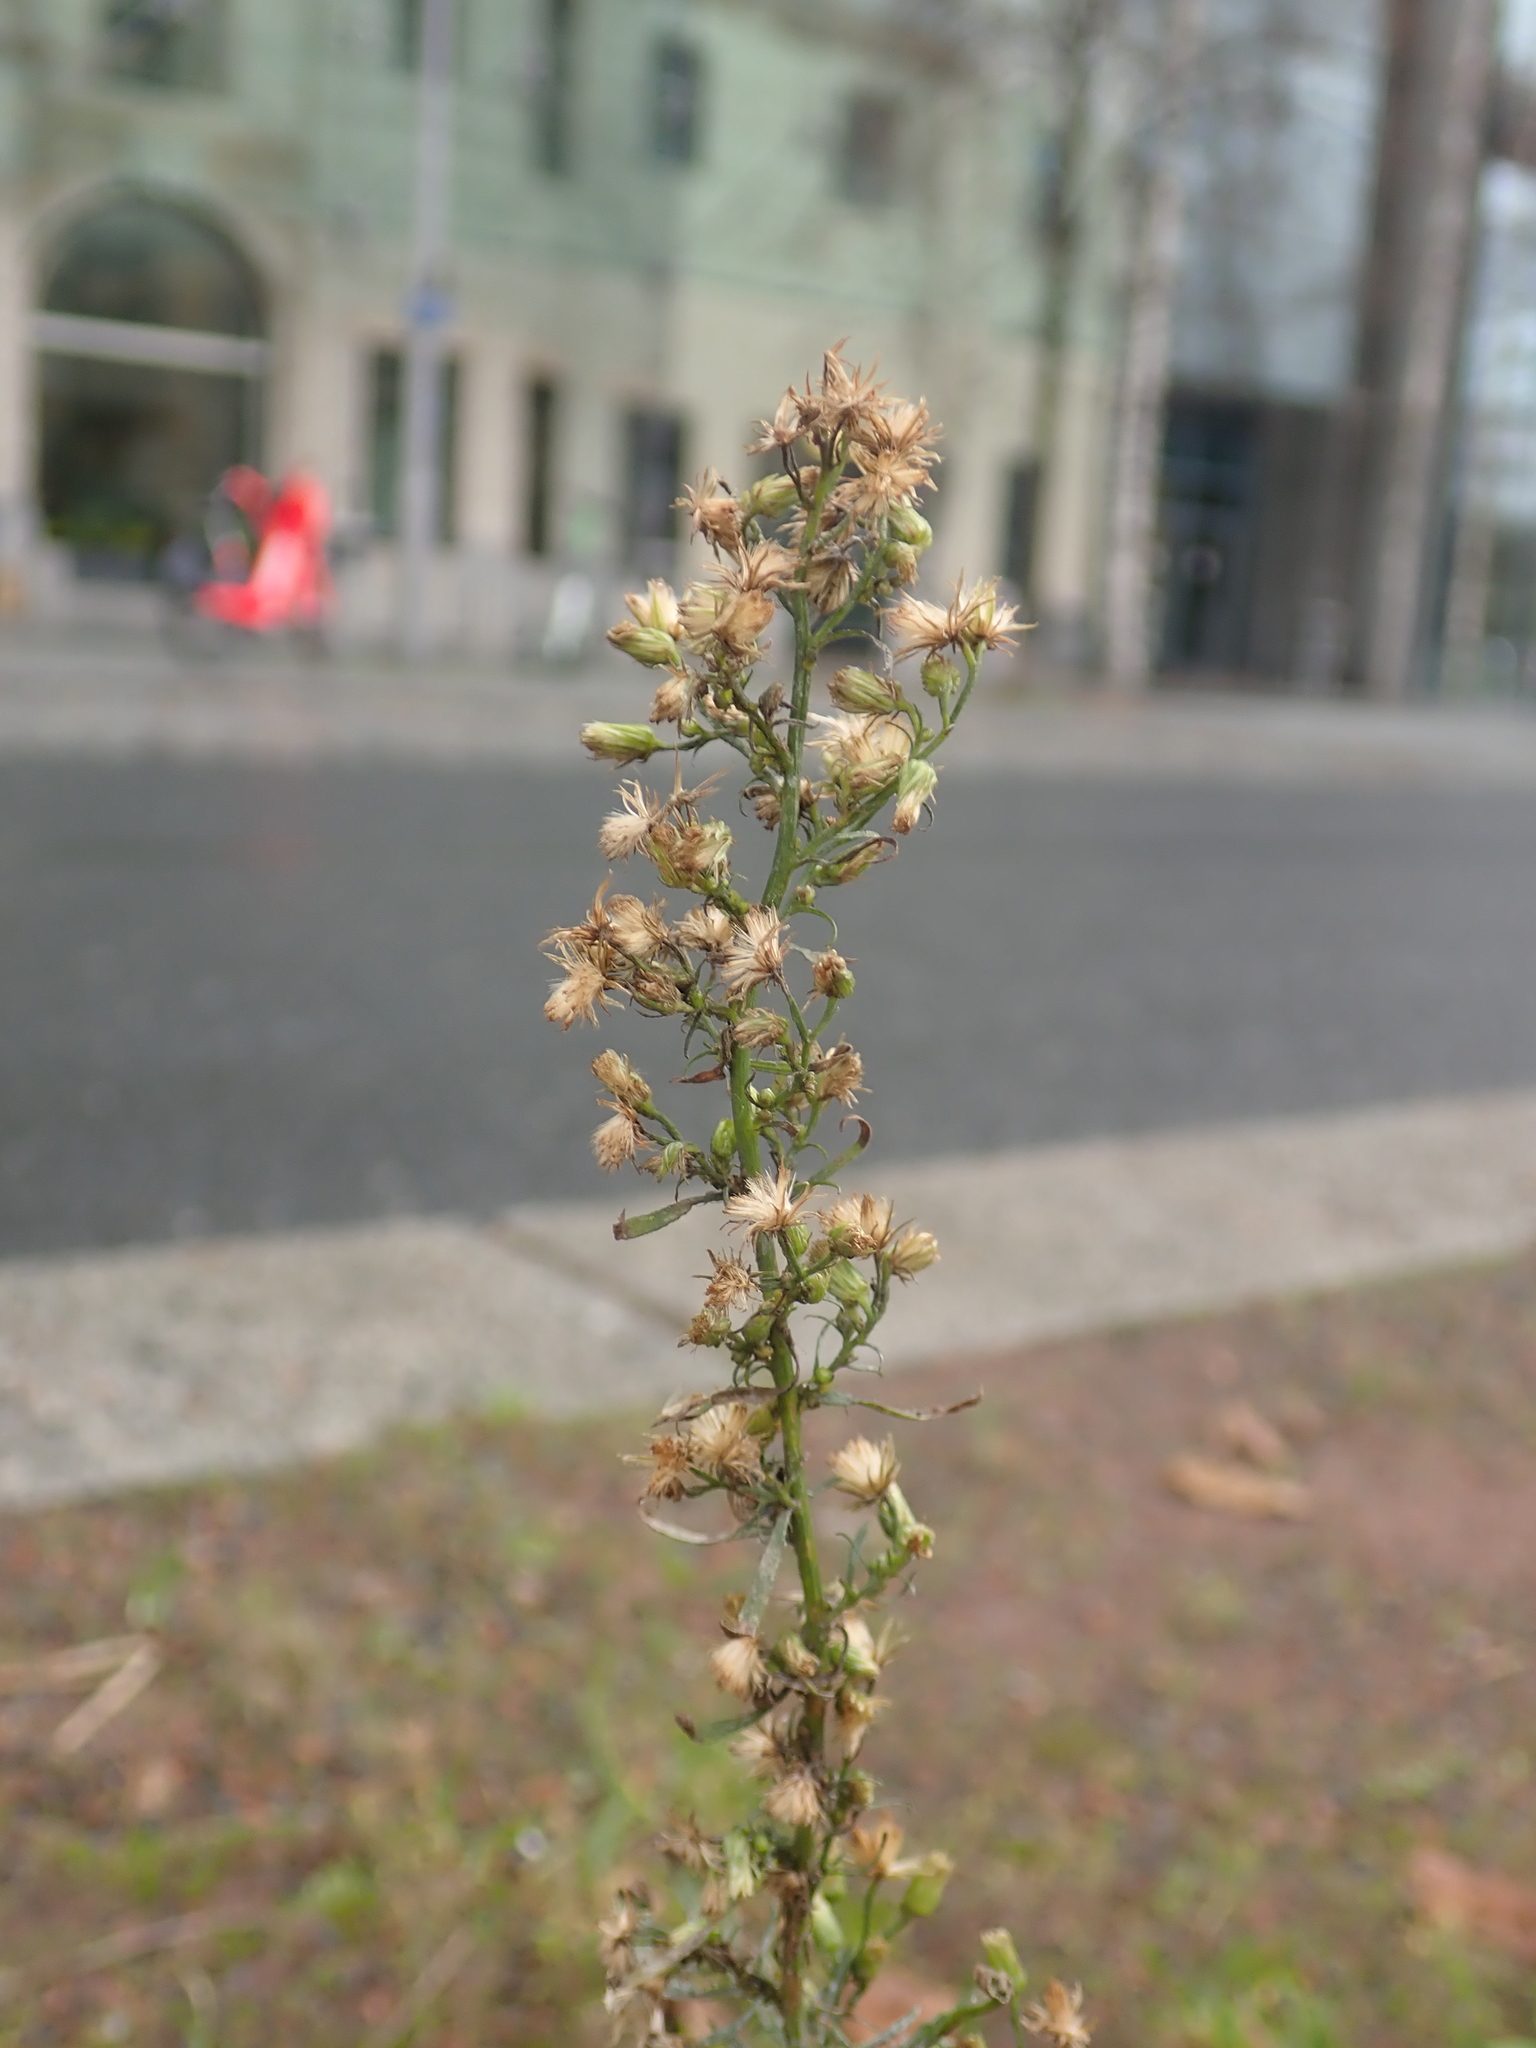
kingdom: Plantae
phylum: Tracheophyta
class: Magnoliopsida
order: Asterales
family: Asteraceae
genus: Erigeron
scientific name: Erigeron canadensis
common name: Canadian fleabane
